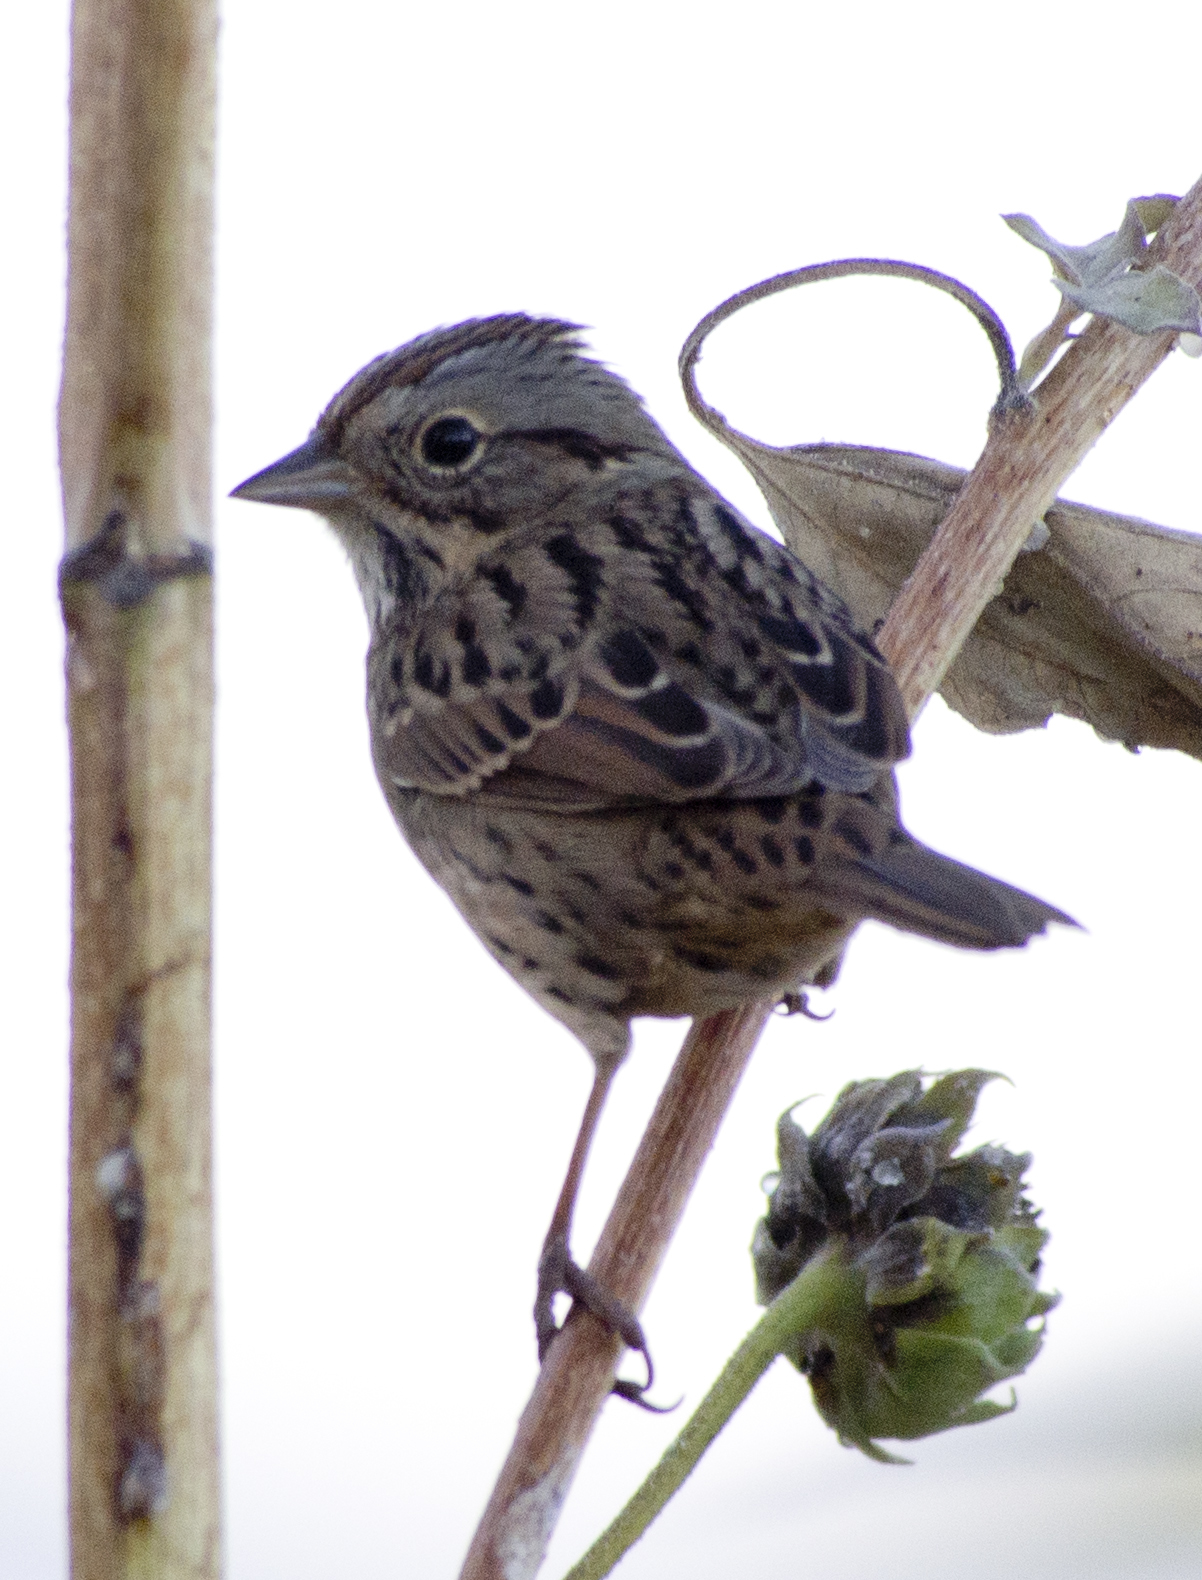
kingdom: Animalia
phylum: Chordata
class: Aves
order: Passeriformes
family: Passerellidae
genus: Melospiza
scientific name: Melospiza lincolnii
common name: Lincoln's sparrow
